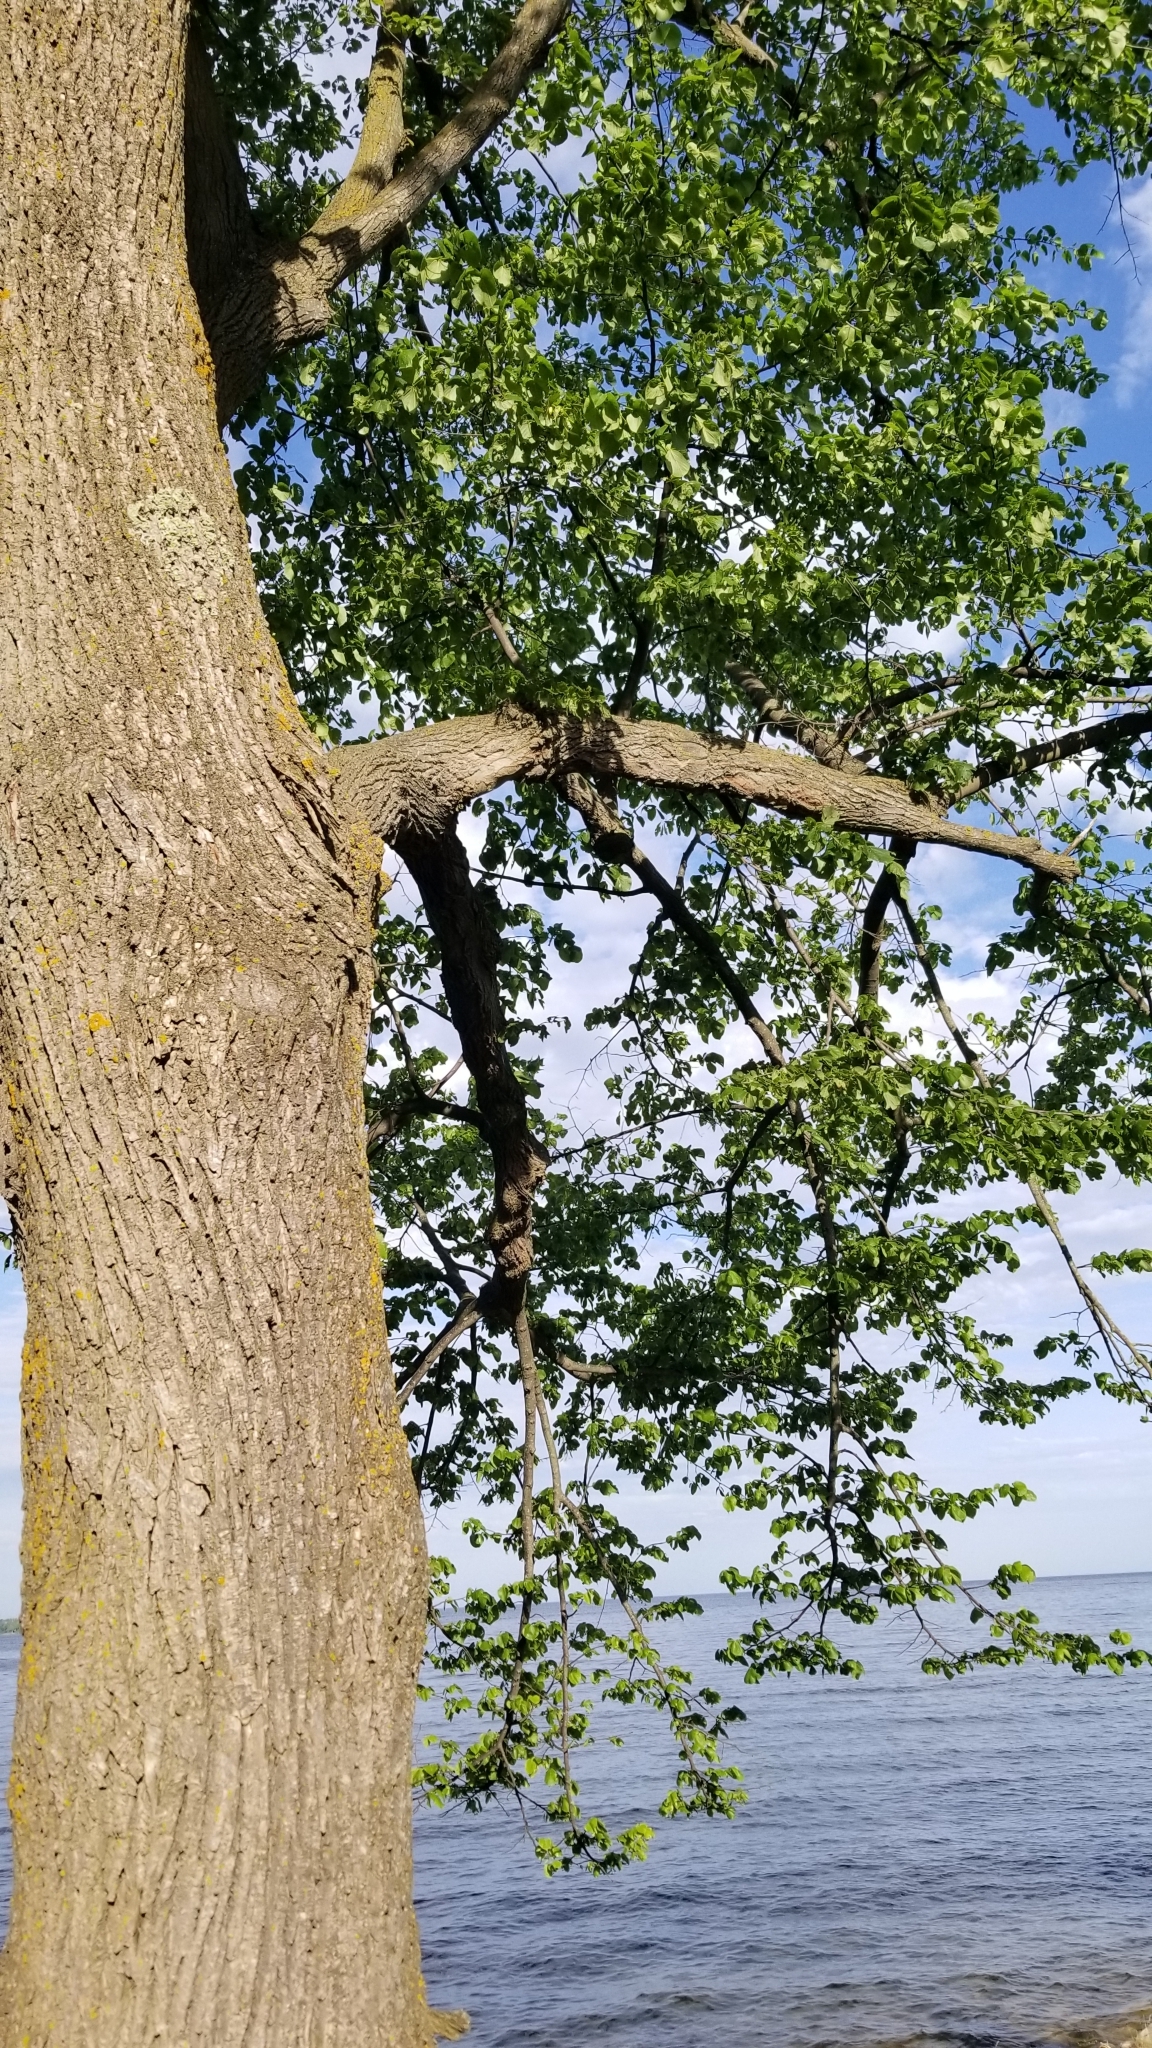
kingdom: Plantae
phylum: Tracheophyta
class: Magnoliopsida
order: Malvales
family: Malvaceae
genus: Tilia
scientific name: Tilia americana
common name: Basswood
